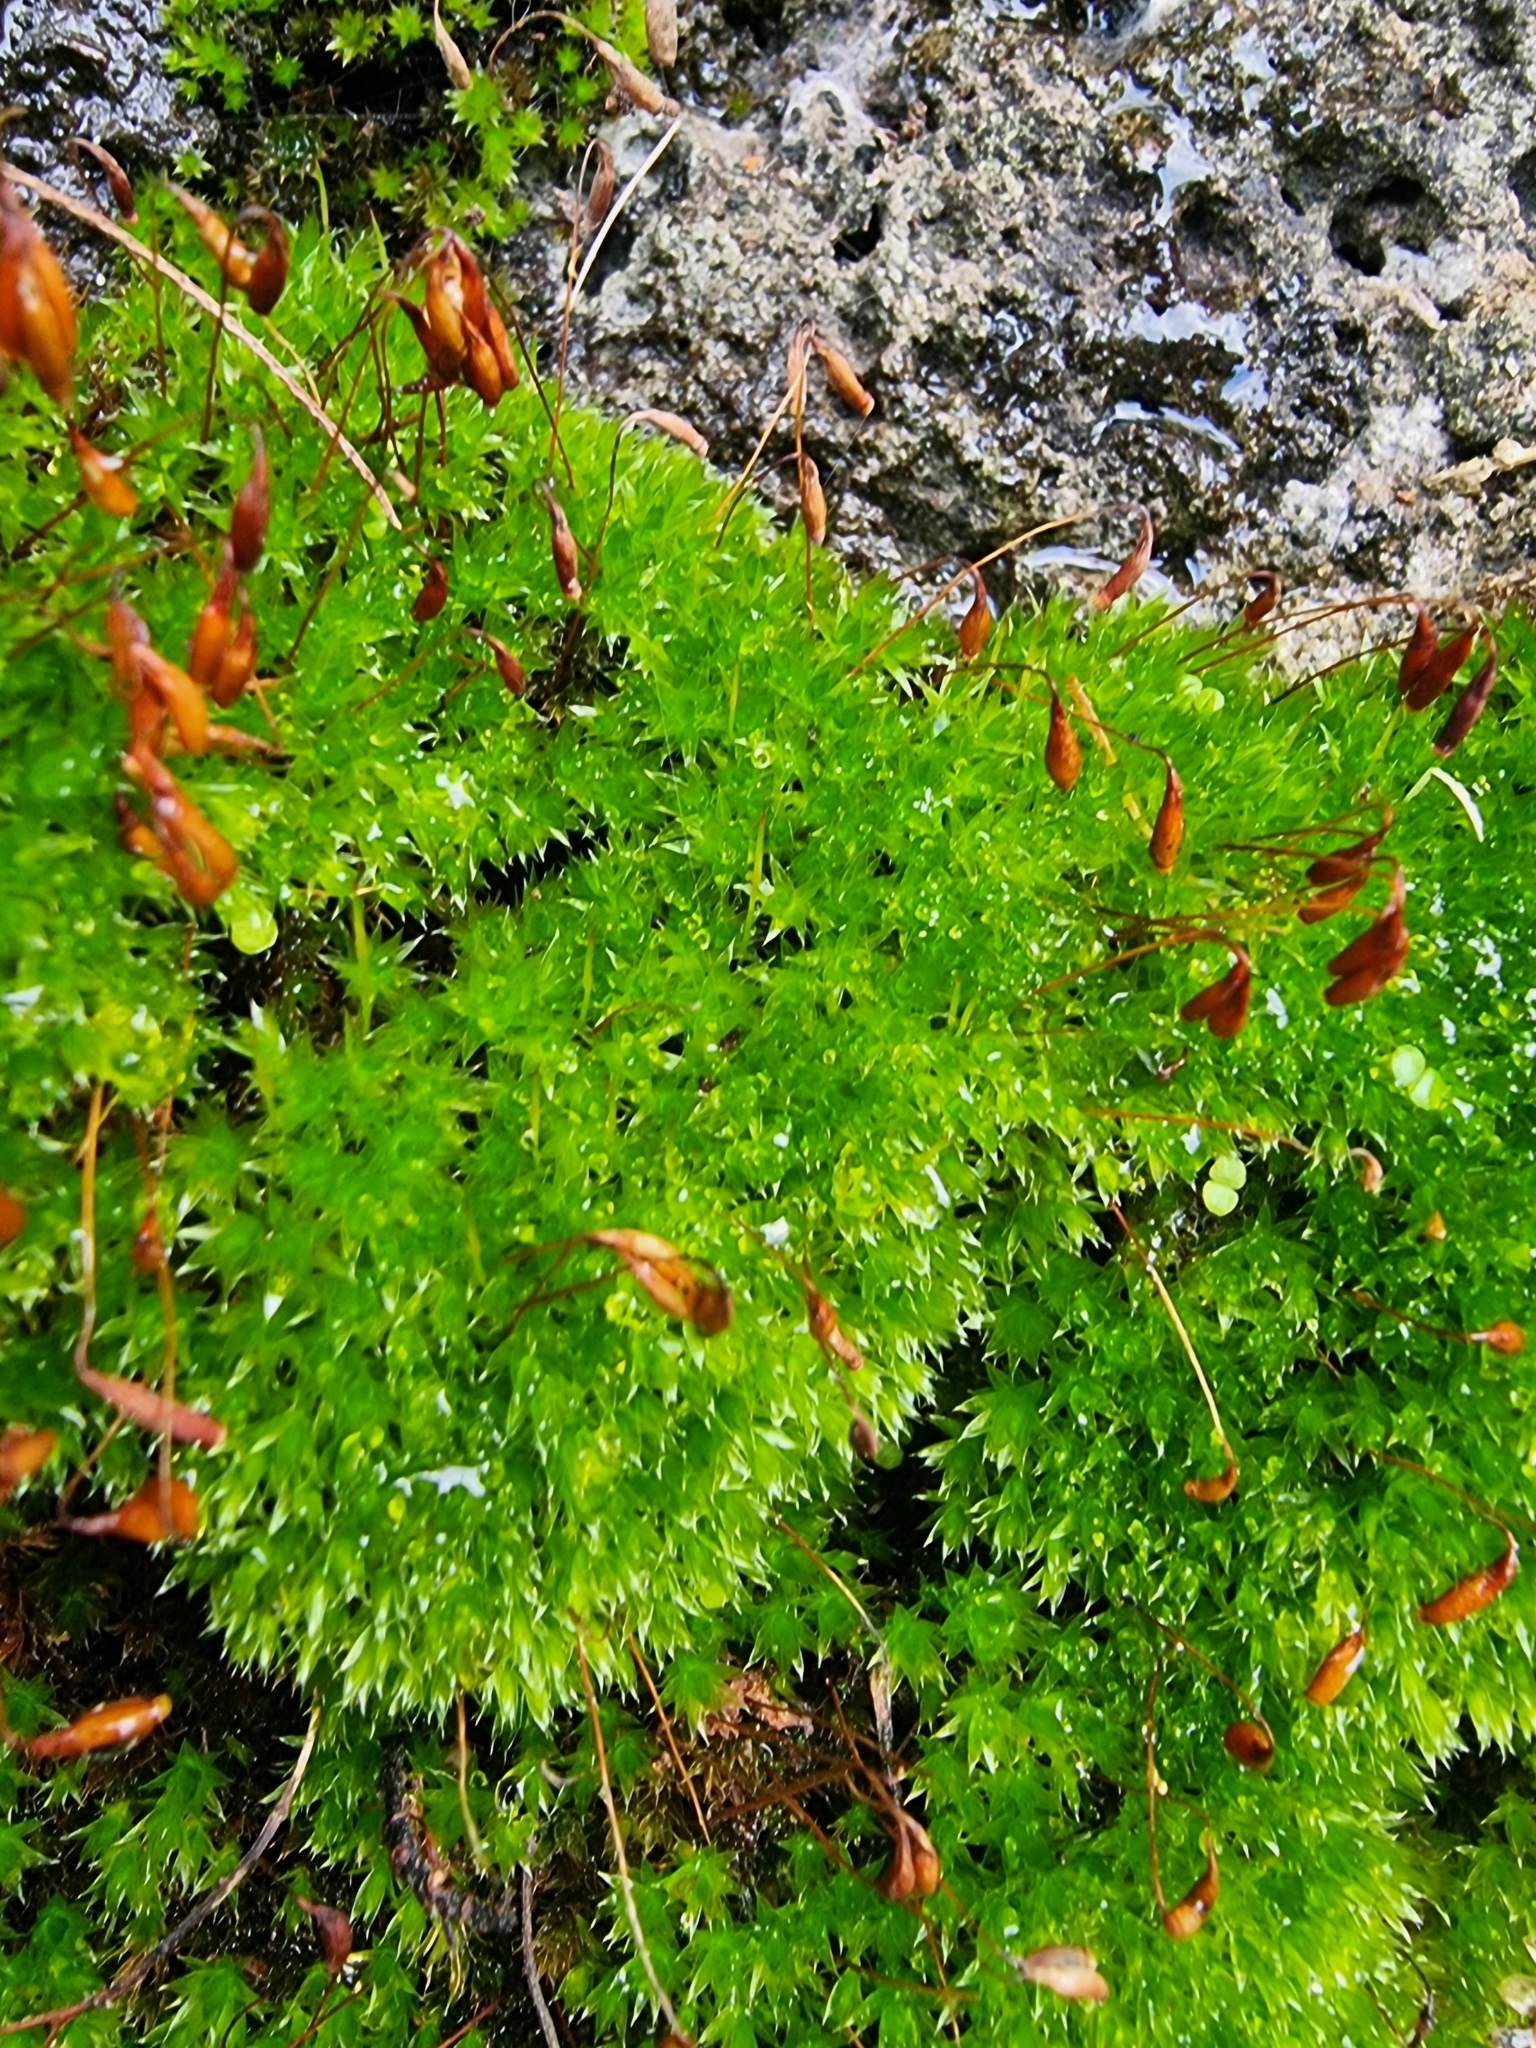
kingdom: Plantae
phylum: Bryophyta
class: Bryopsida
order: Bryales
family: Bryaceae
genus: Rosulabryum
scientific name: Rosulabryum capillare
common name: Capillary thread-moss
